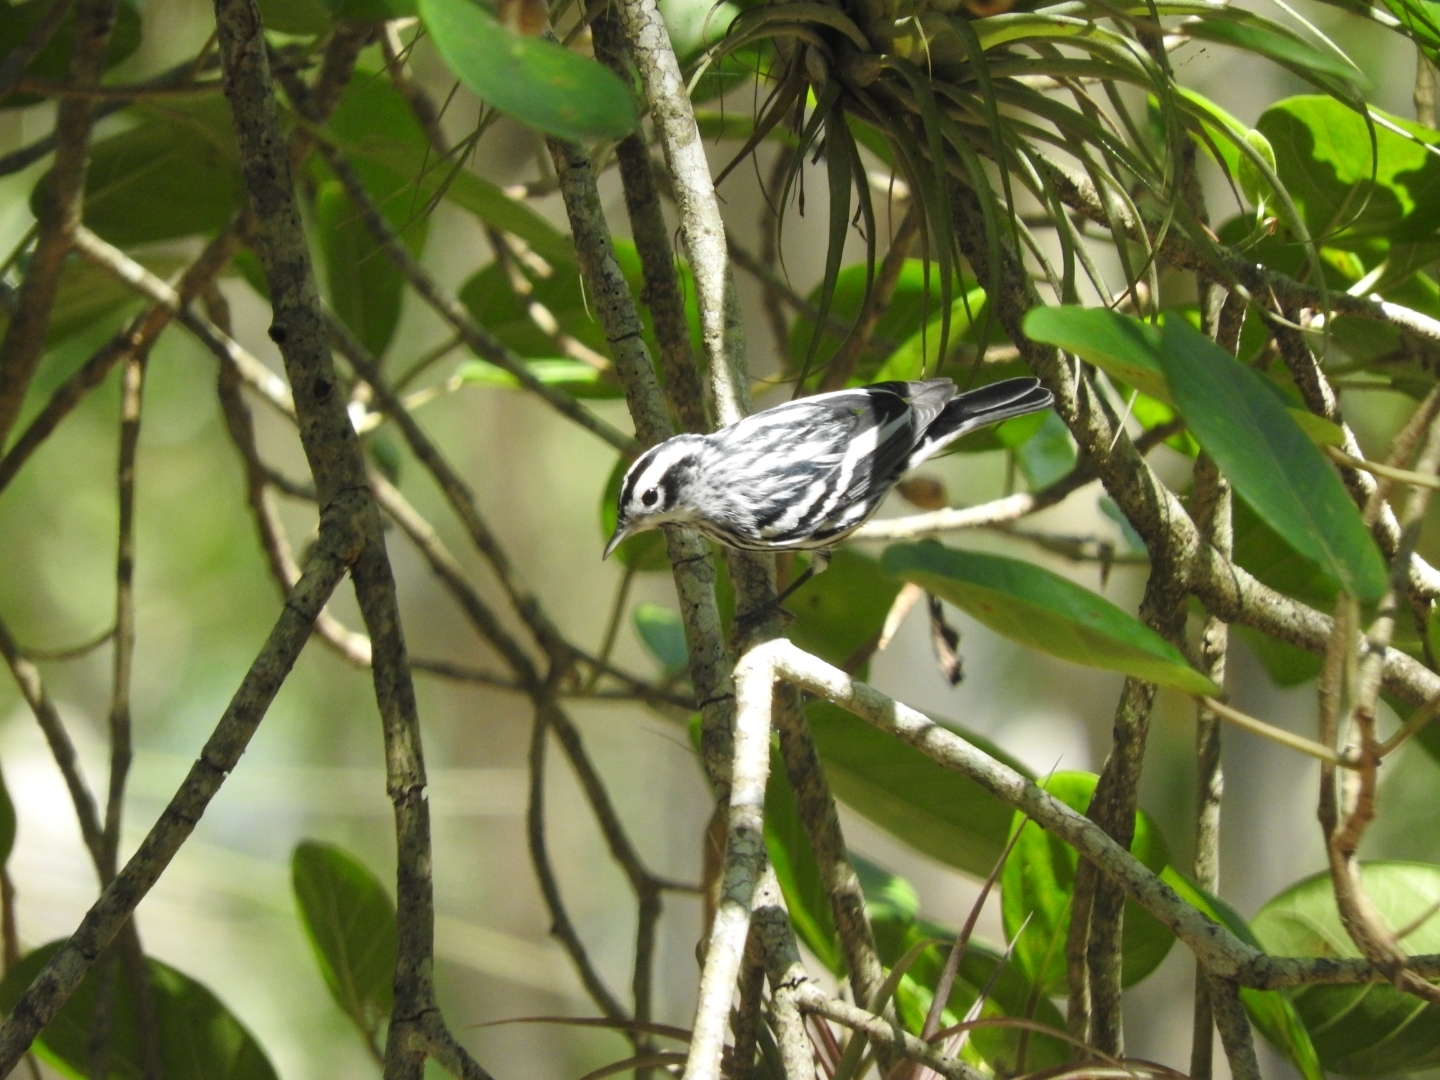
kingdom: Animalia
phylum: Chordata
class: Aves
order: Passeriformes
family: Parulidae
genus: Mniotilta
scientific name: Mniotilta varia
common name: Black-and-white warbler
